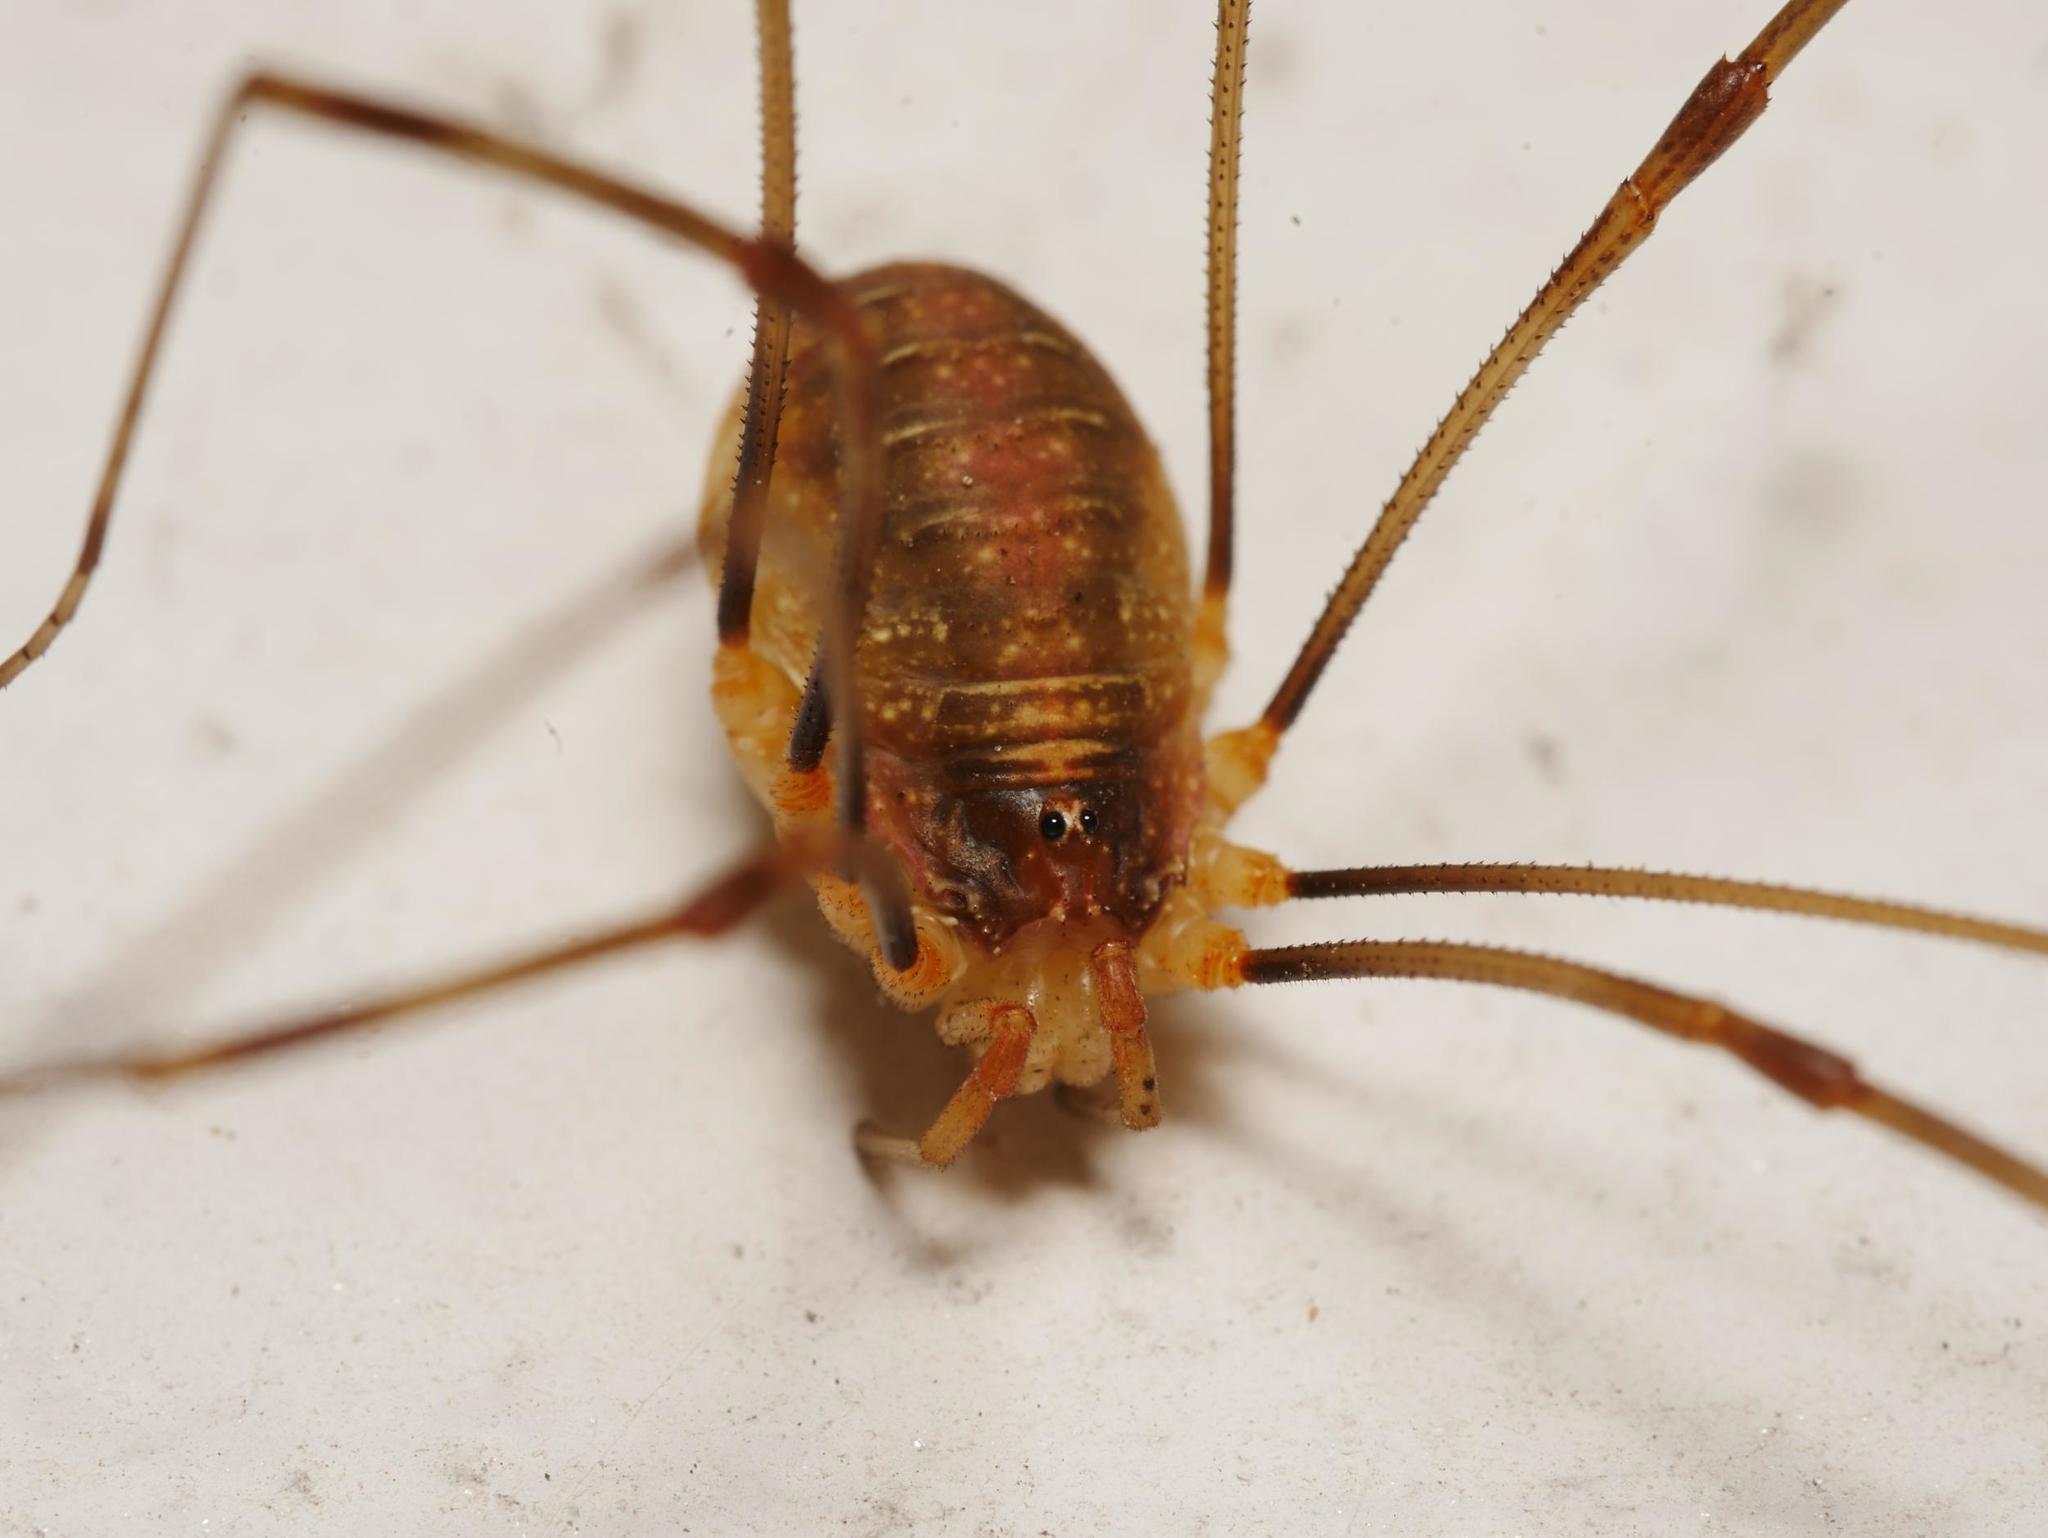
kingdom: Animalia
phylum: Arthropoda
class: Arachnida
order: Opiliones
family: Phalangiidae
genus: Opilio
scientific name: Opilio canestrinii
